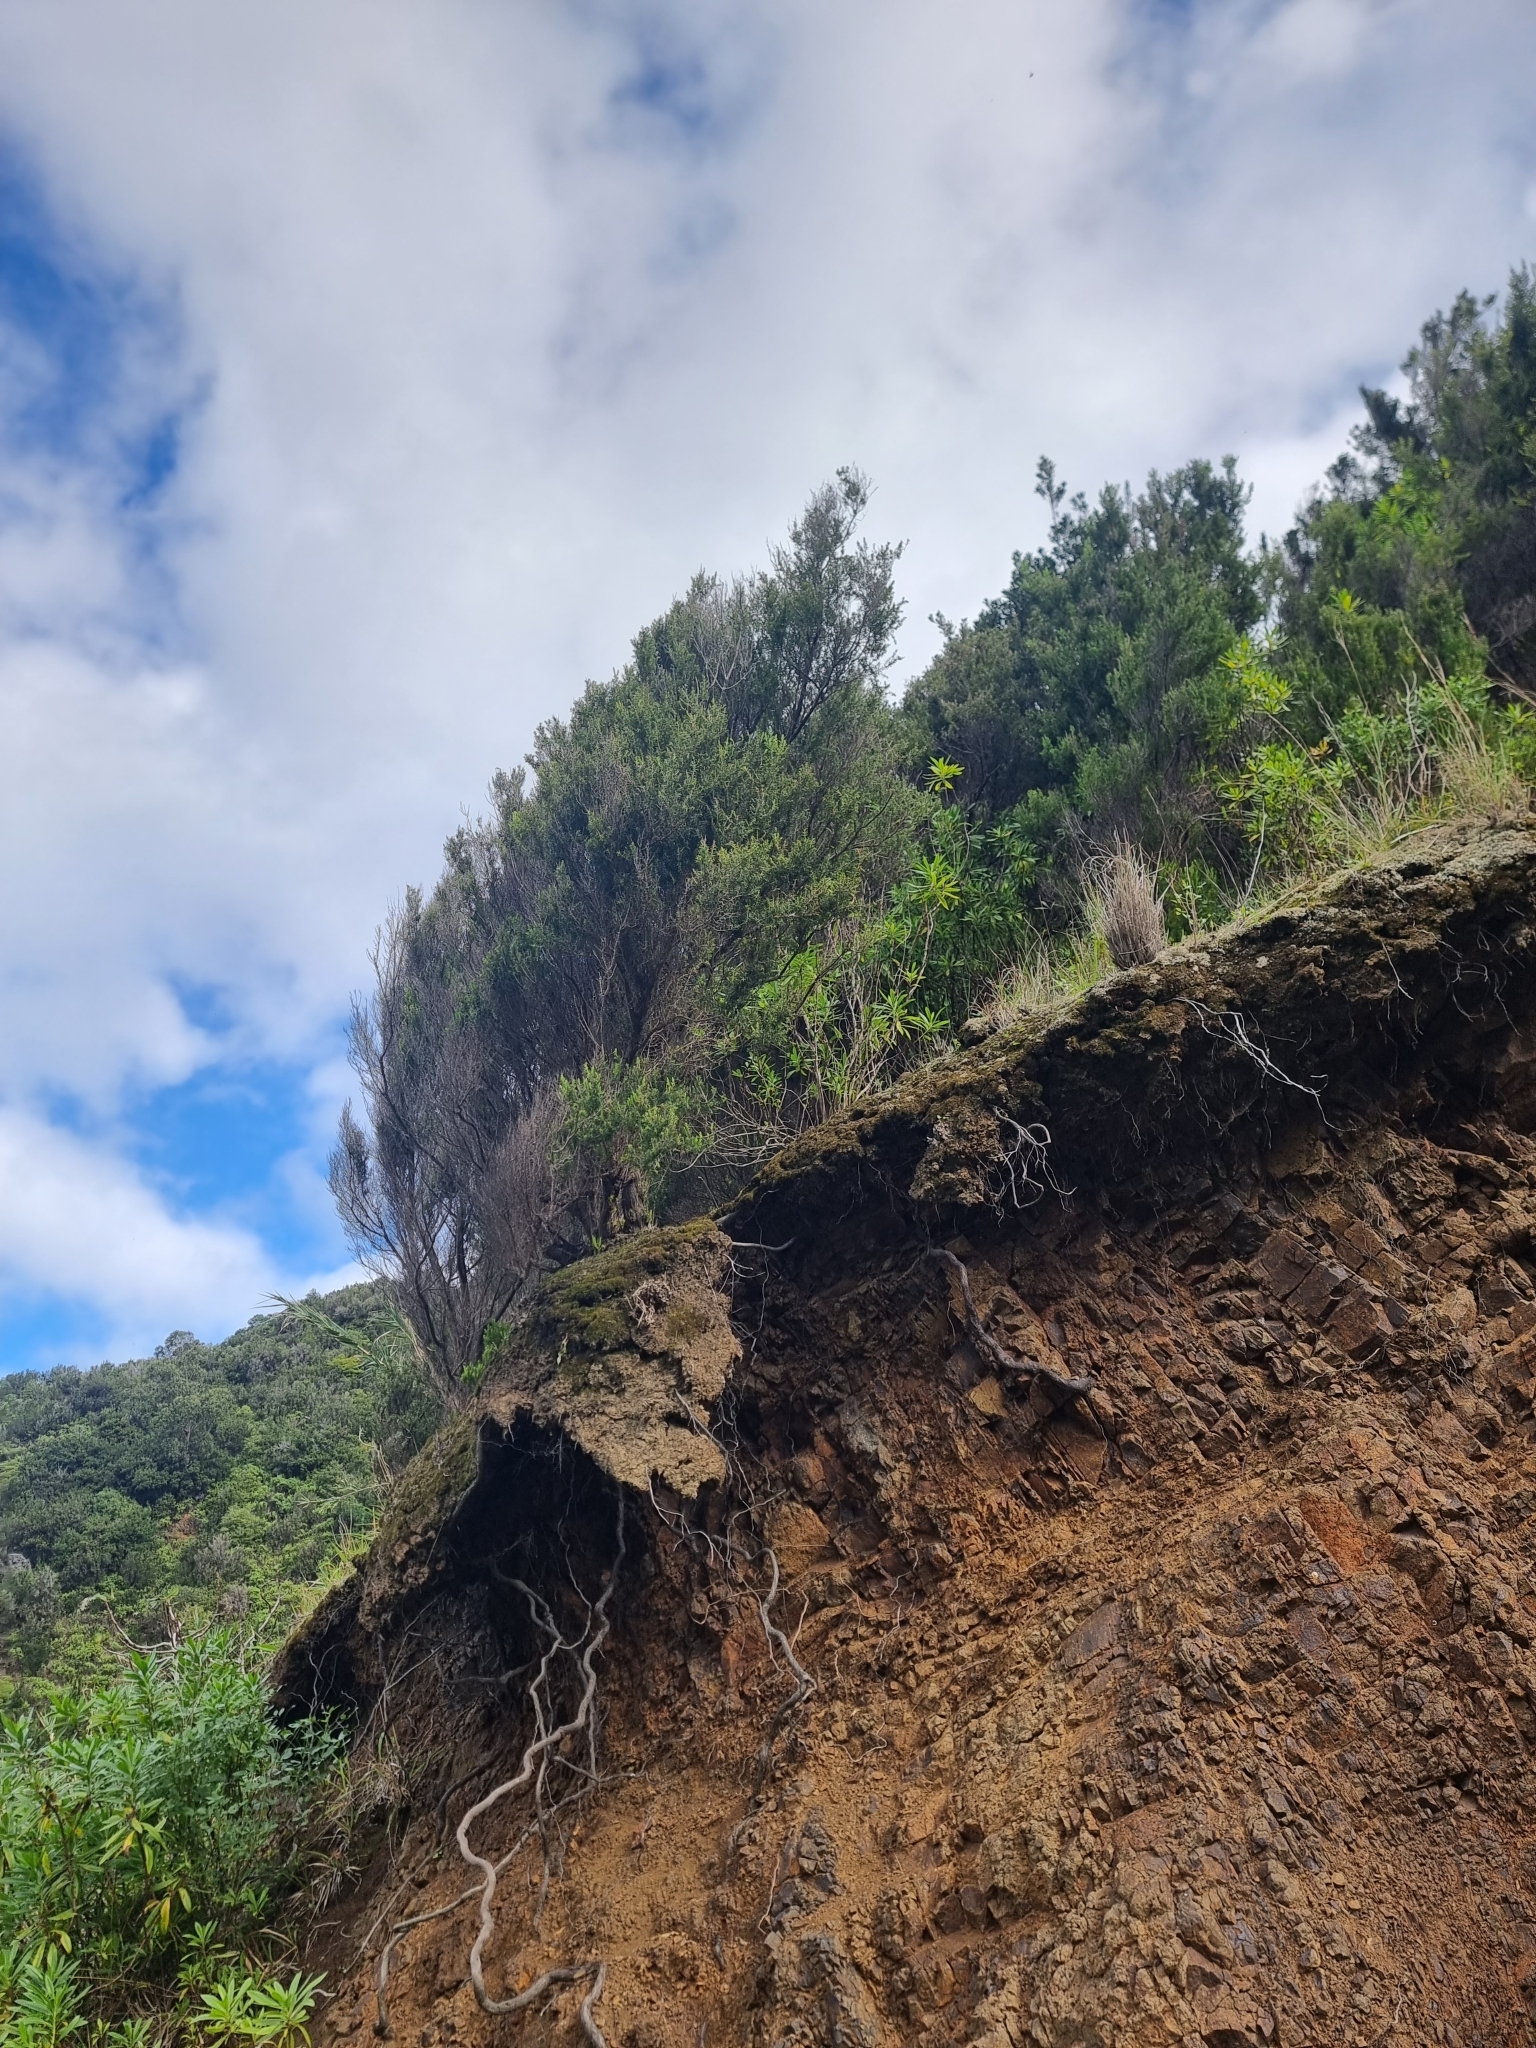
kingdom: Plantae
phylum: Tracheophyta
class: Magnoliopsida
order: Ericales
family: Ericaceae
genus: Erica
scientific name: Erica canariensis
